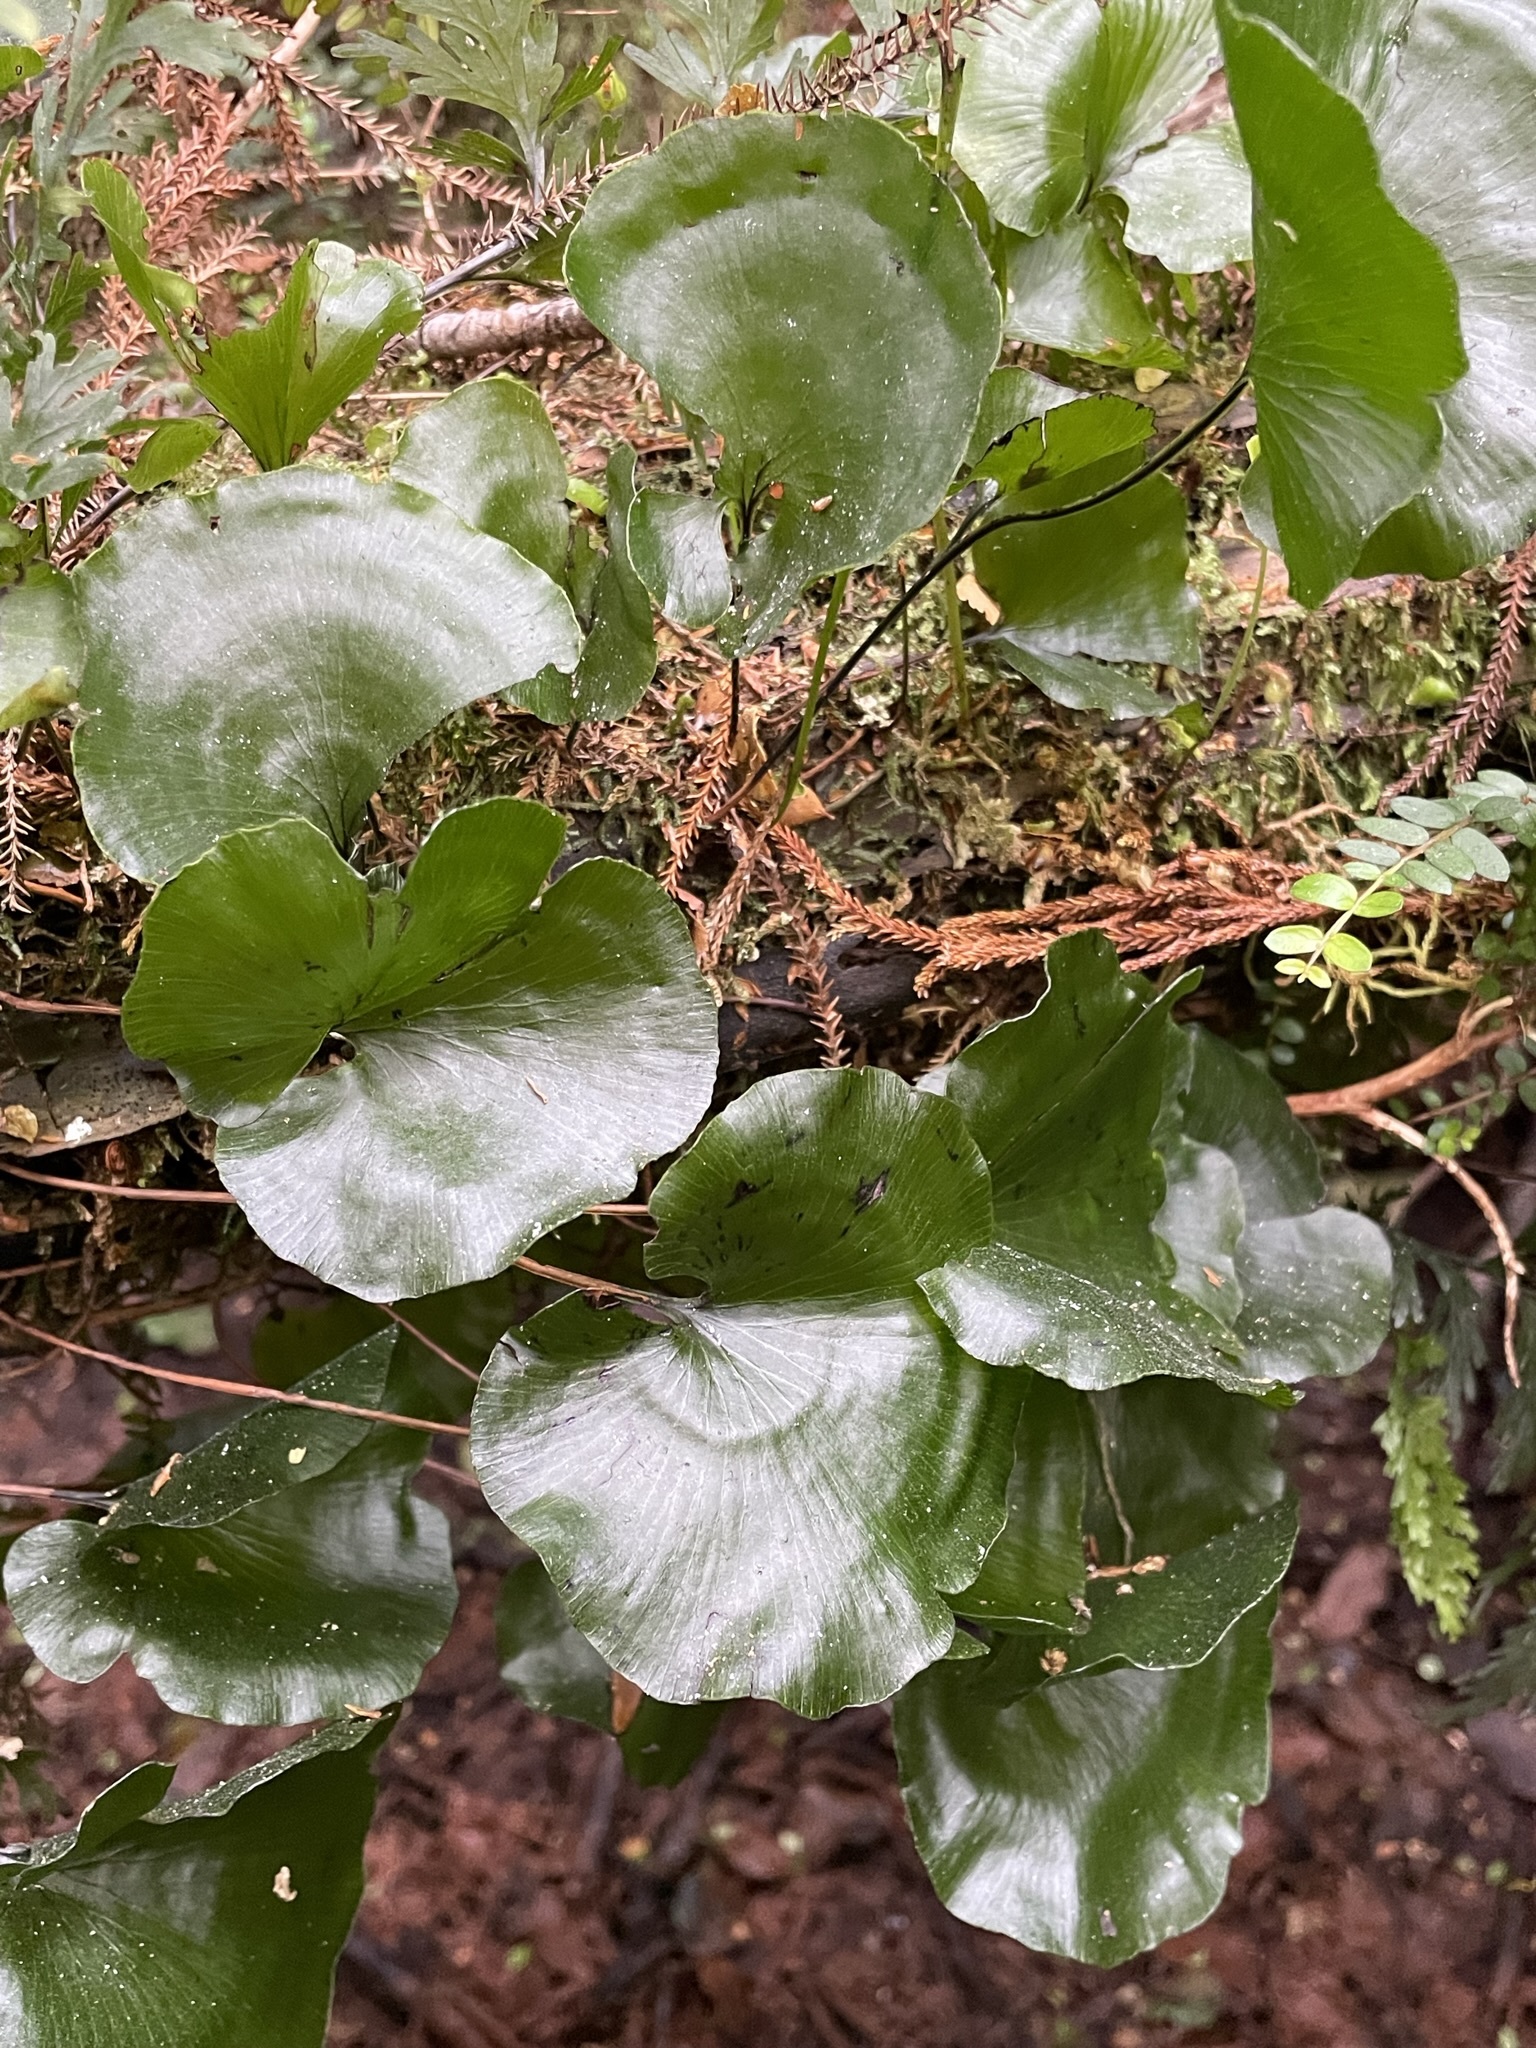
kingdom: Plantae
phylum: Tracheophyta
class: Polypodiopsida
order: Hymenophyllales
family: Hymenophyllaceae
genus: Hymenophyllum
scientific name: Hymenophyllum nephrophyllum
